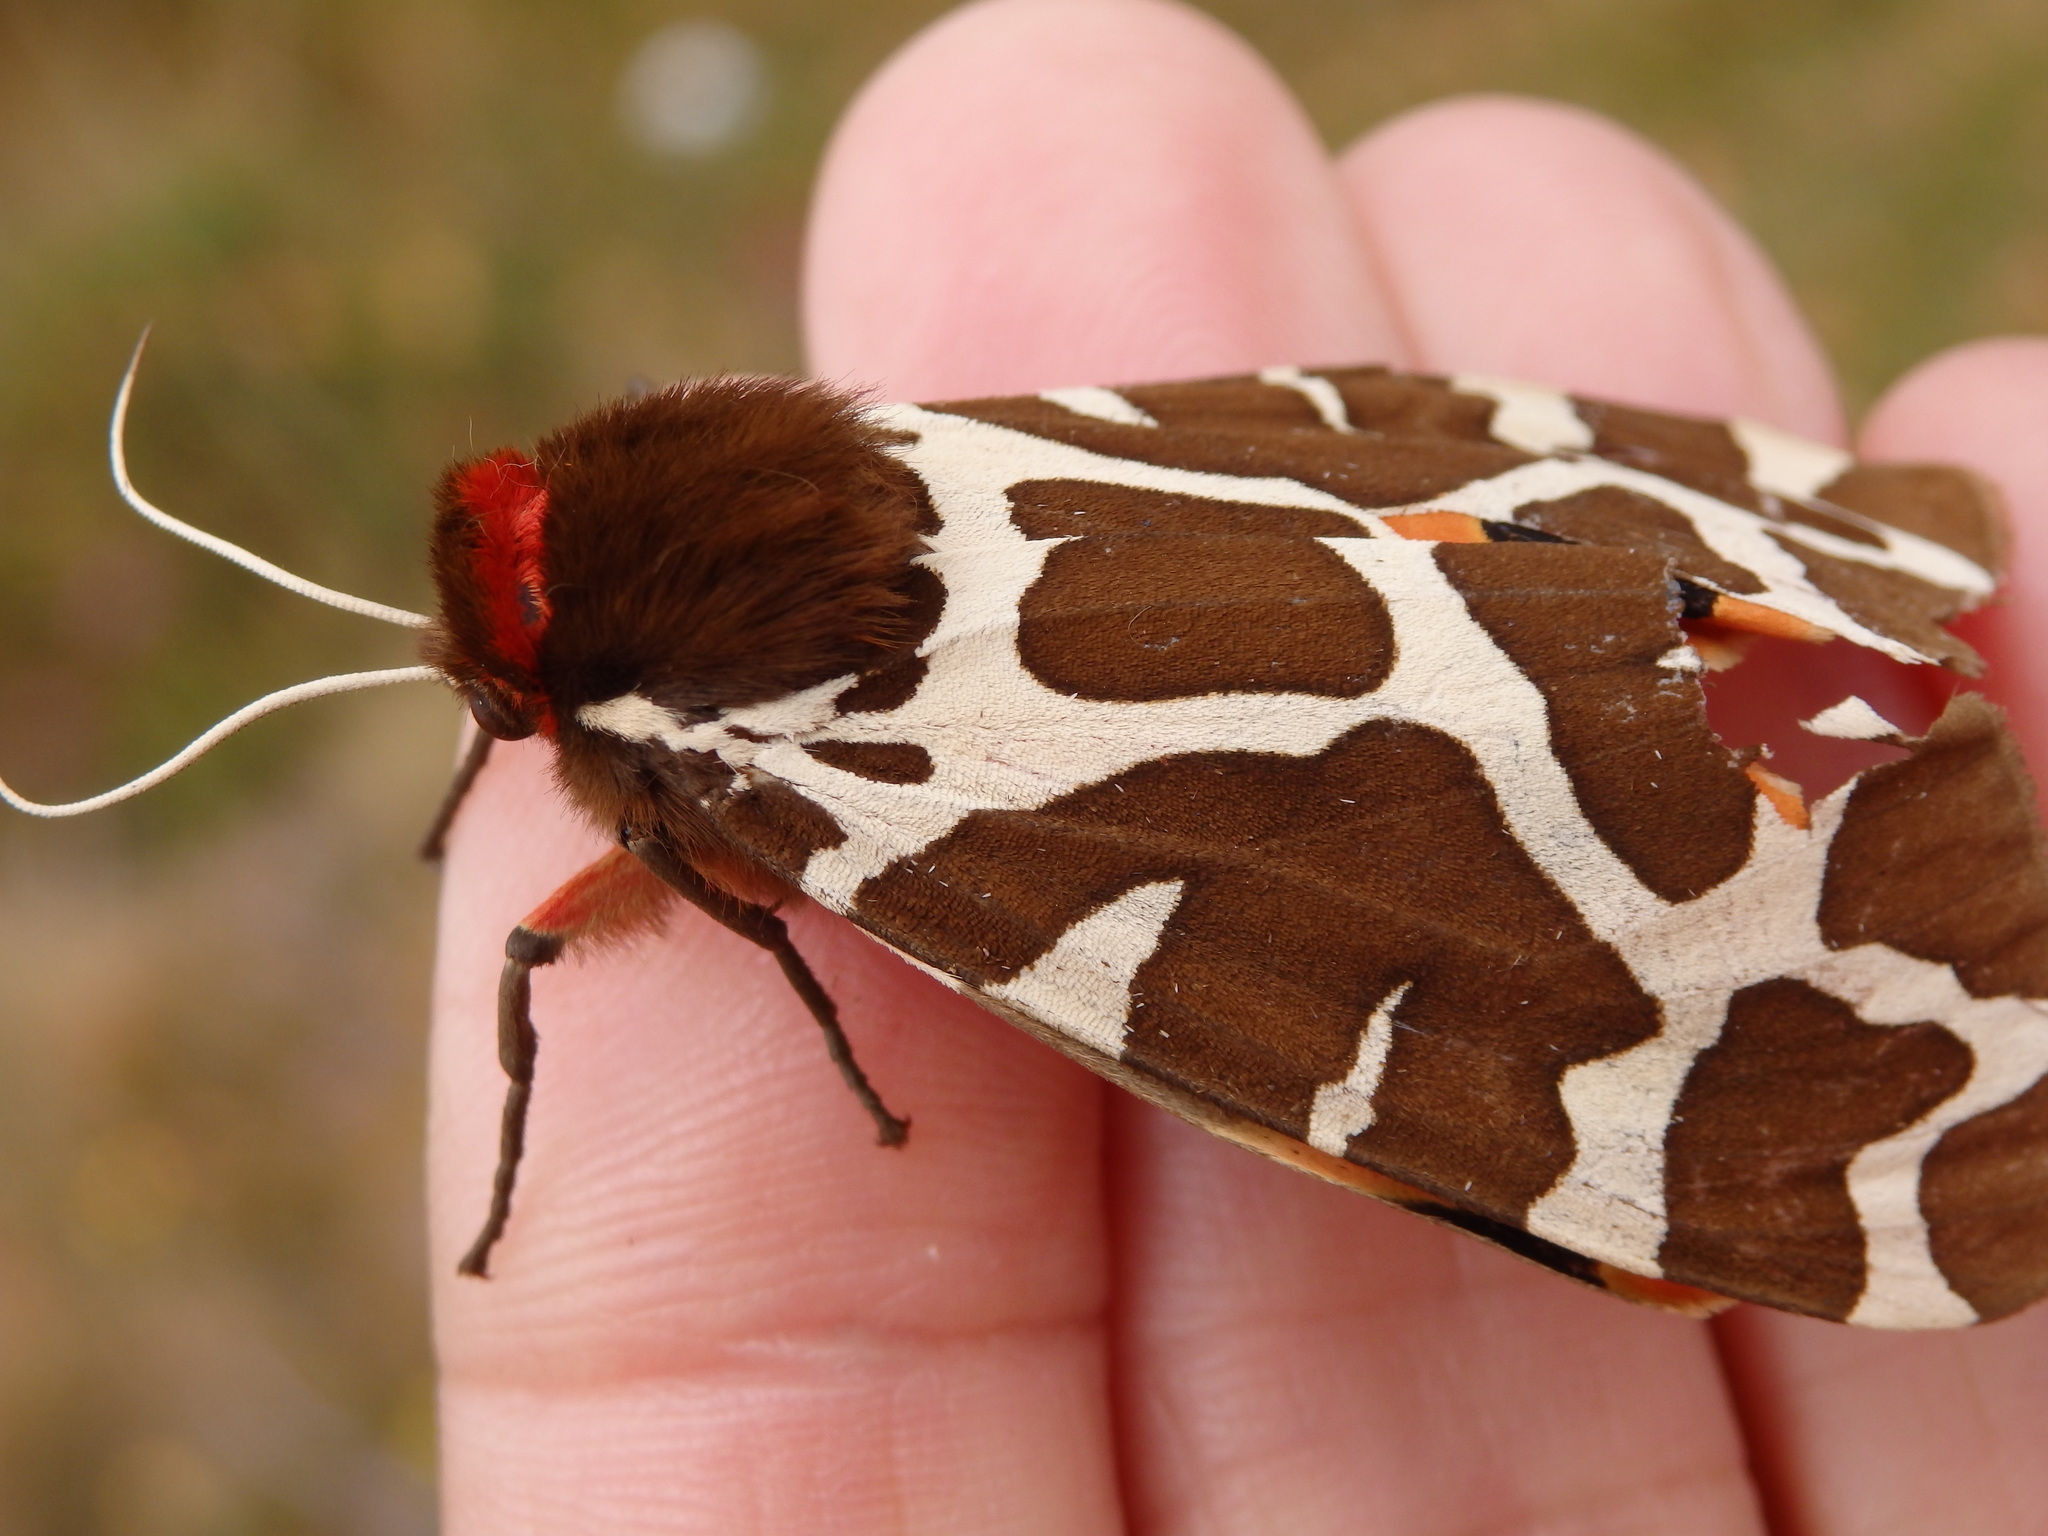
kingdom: Animalia
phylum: Arthropoda
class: Insecta
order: Lepidoptera
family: Erebidae
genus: Arctia
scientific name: Arctia caja
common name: Garden tiger
